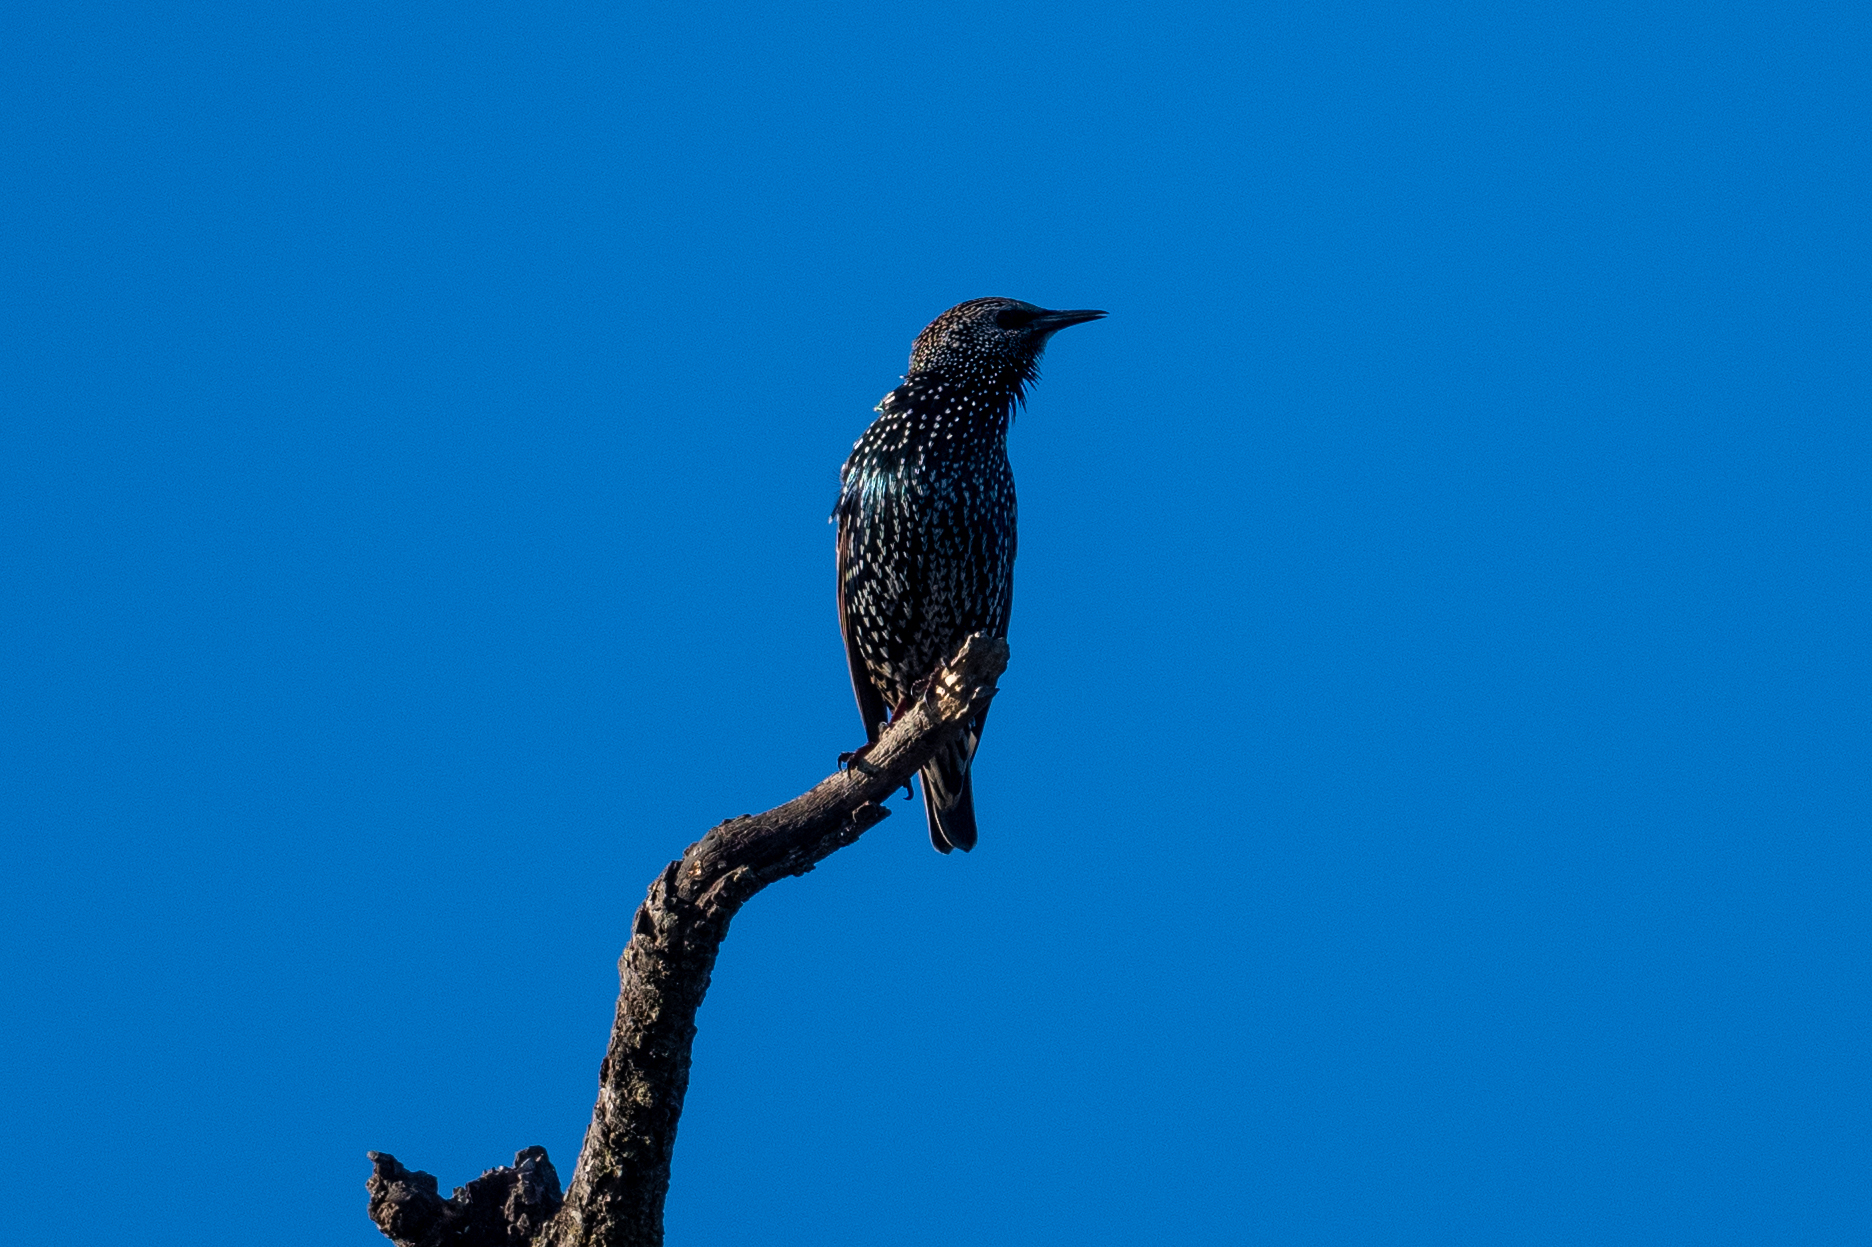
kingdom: Animalia
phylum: Chordata
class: Aves
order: Passeriformes
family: Sturnidae
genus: Sturnus
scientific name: Sturnus vulgaris
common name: Common starling
